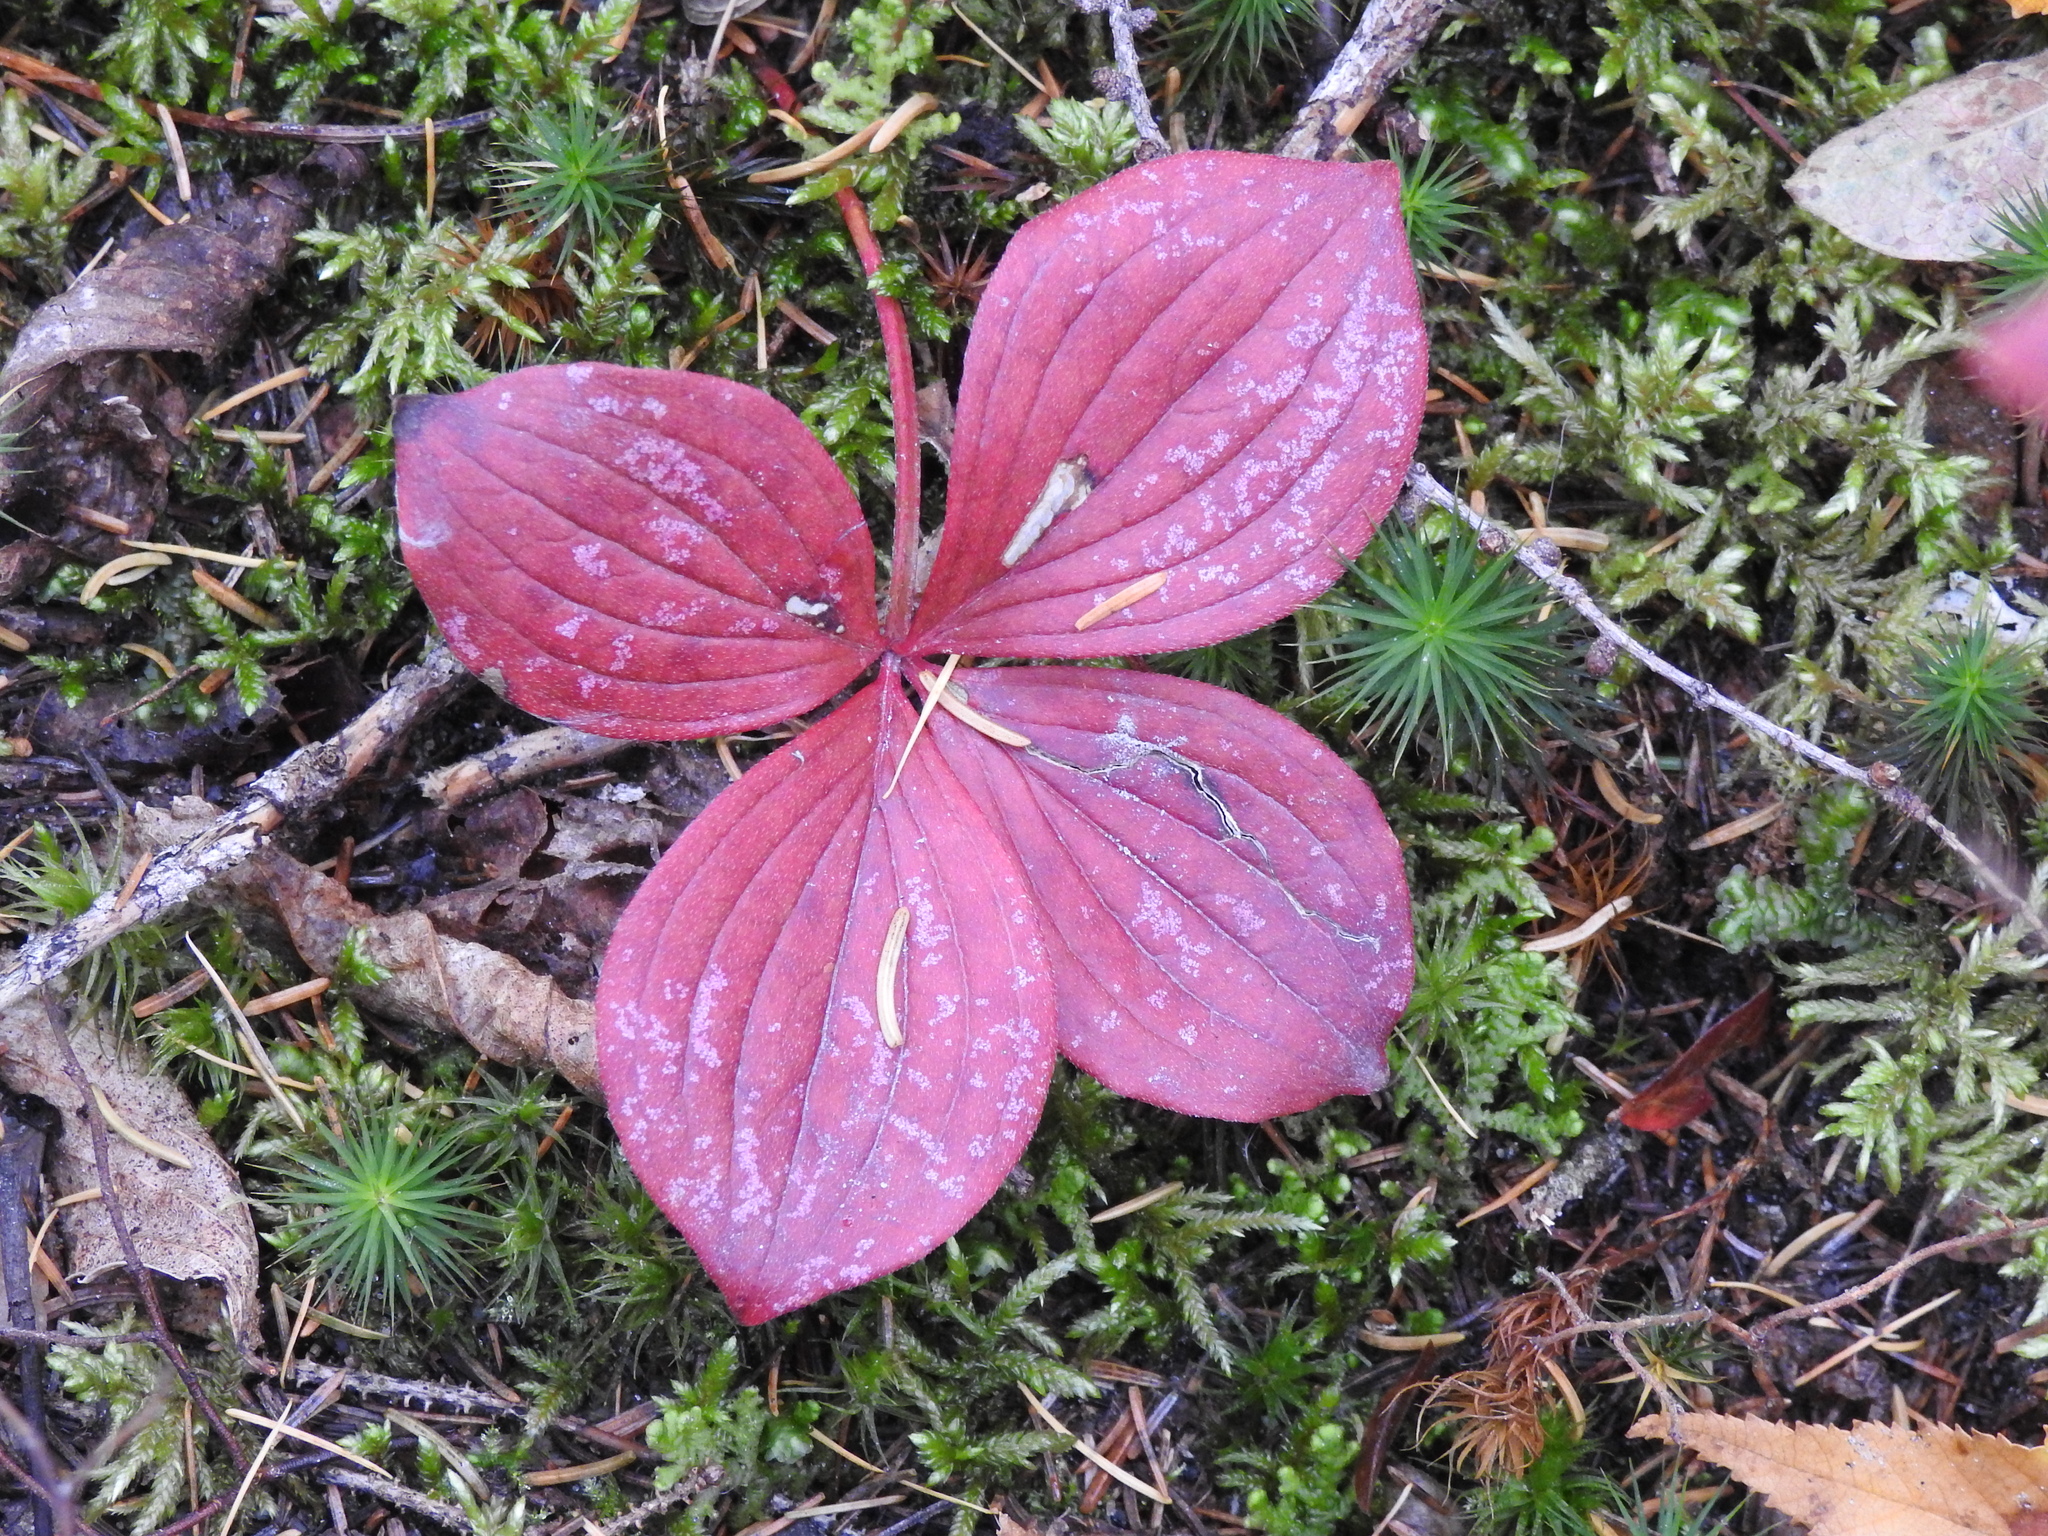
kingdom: Plantae
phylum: Tracheophyta
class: Magnoliopsida
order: Cornales
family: Cornaceae
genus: Cornus
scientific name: Cornus canadensis
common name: Creeping dogwood
